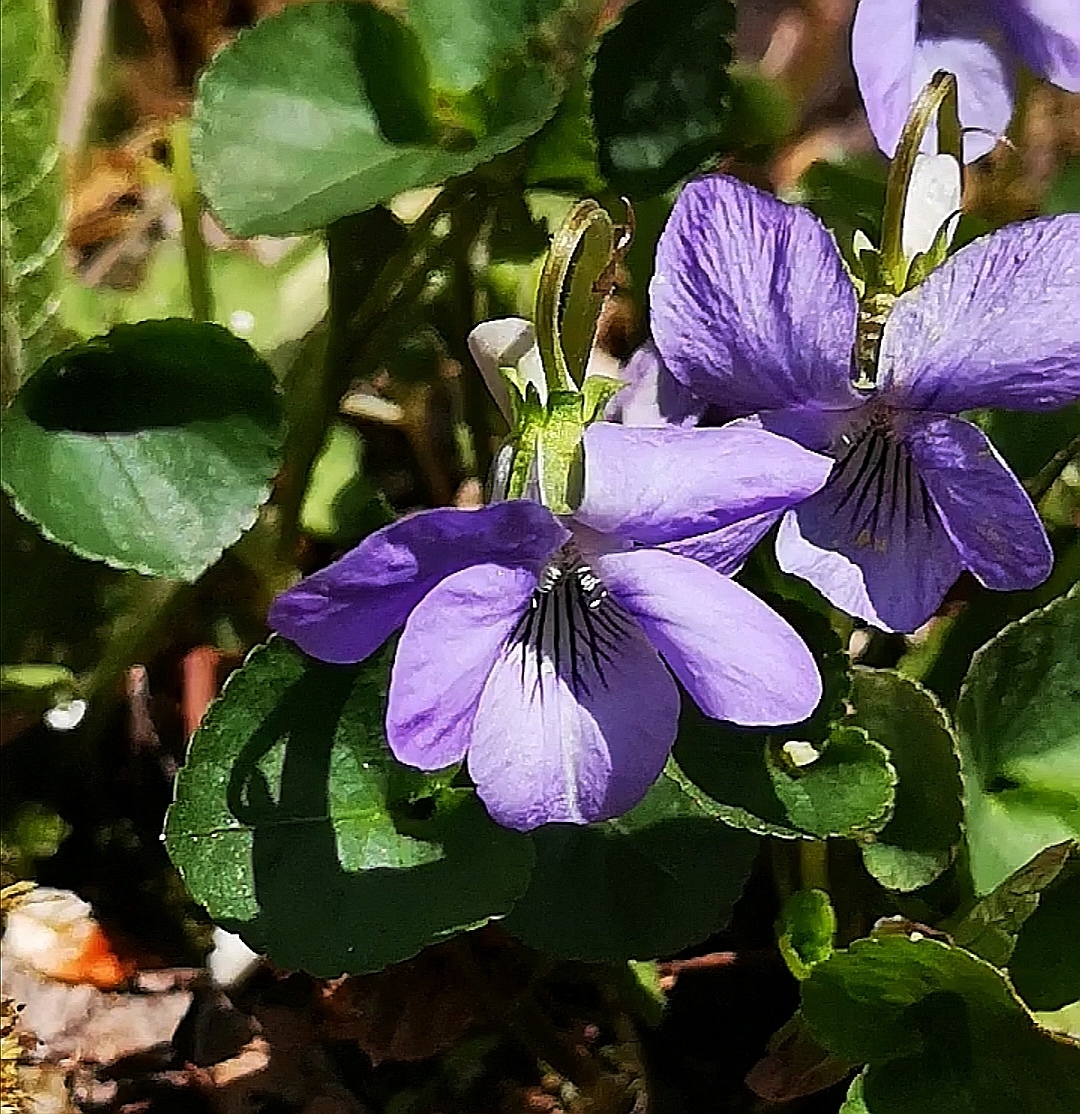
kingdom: Plantae
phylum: Tracheophyta
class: Magnoliopsida
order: Malpighiales
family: Violaceae
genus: Viola
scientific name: Viola riviniana
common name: Common dog-violet
